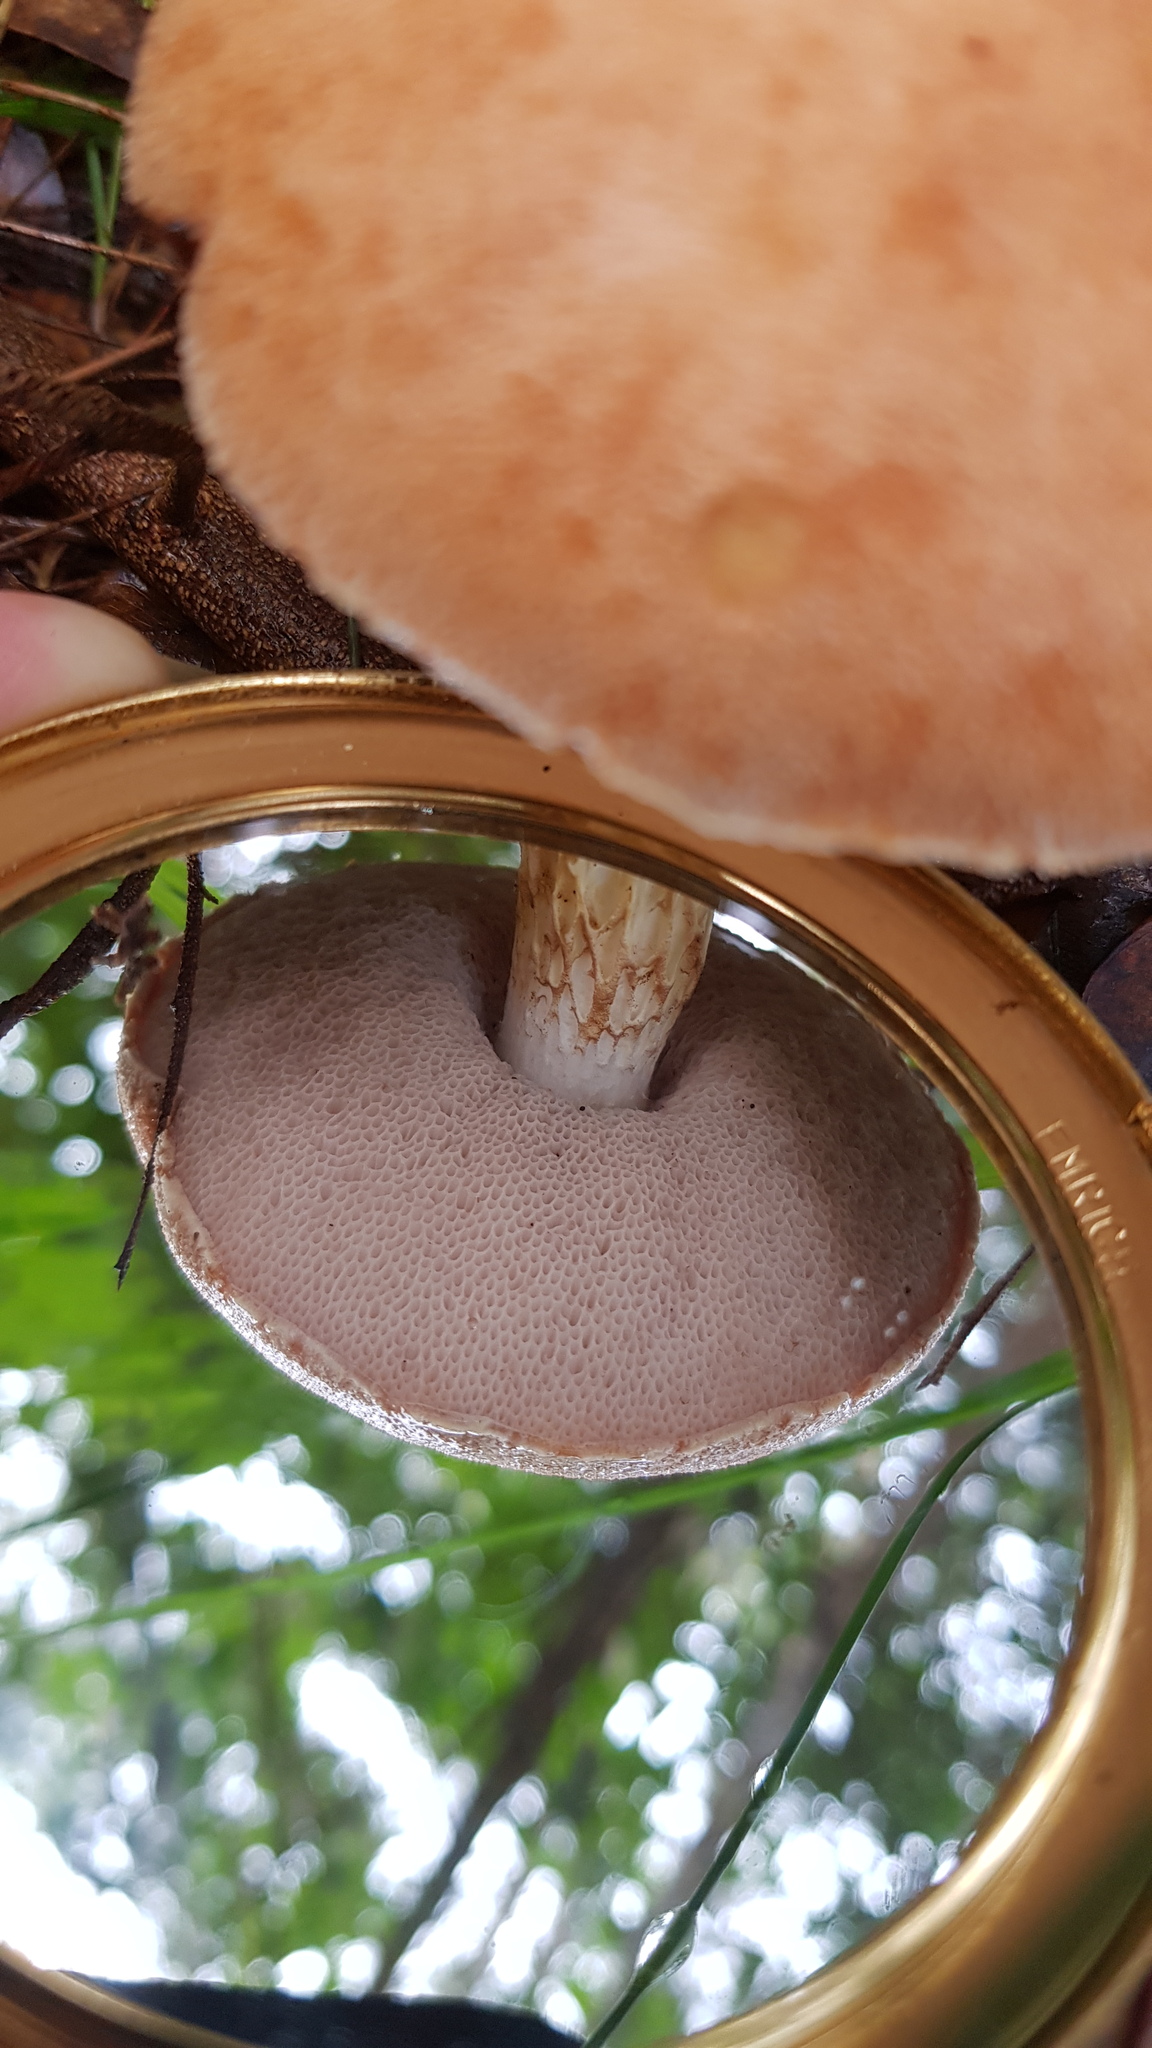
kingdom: Fungi
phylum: Basidiomycota
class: Agaricomycetes
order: Boletales
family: Boletaceae
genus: Austroboletus
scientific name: Austroboletus occidentalis
